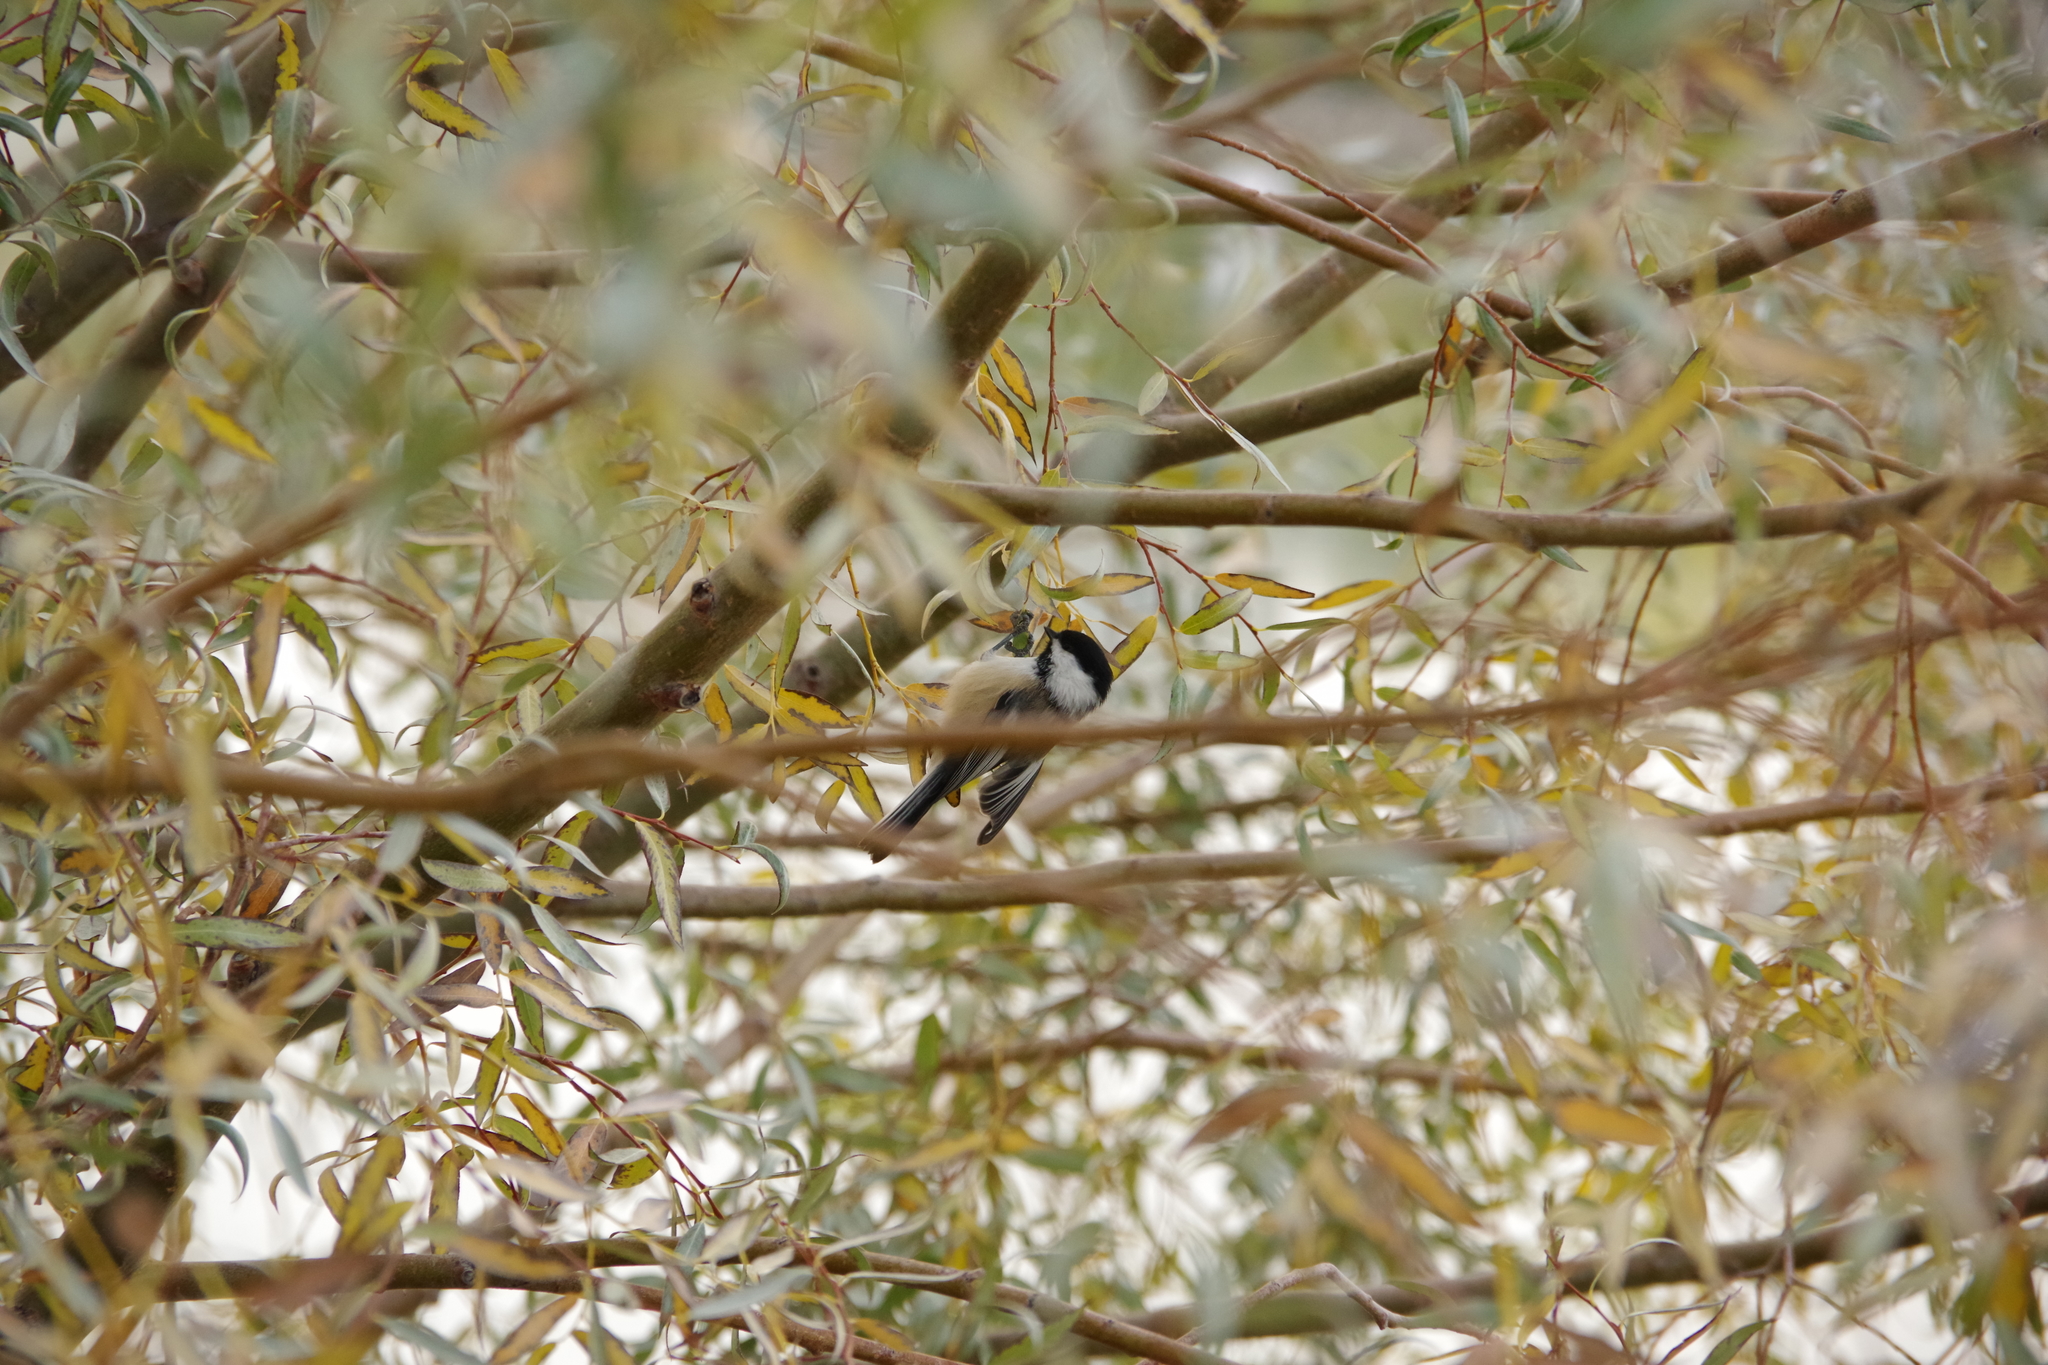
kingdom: Animalia
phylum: Chordata
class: Aves
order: Passeriformes
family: Paridae
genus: Poecile
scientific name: Poecile atricapillus
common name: Black-capped chickadee
